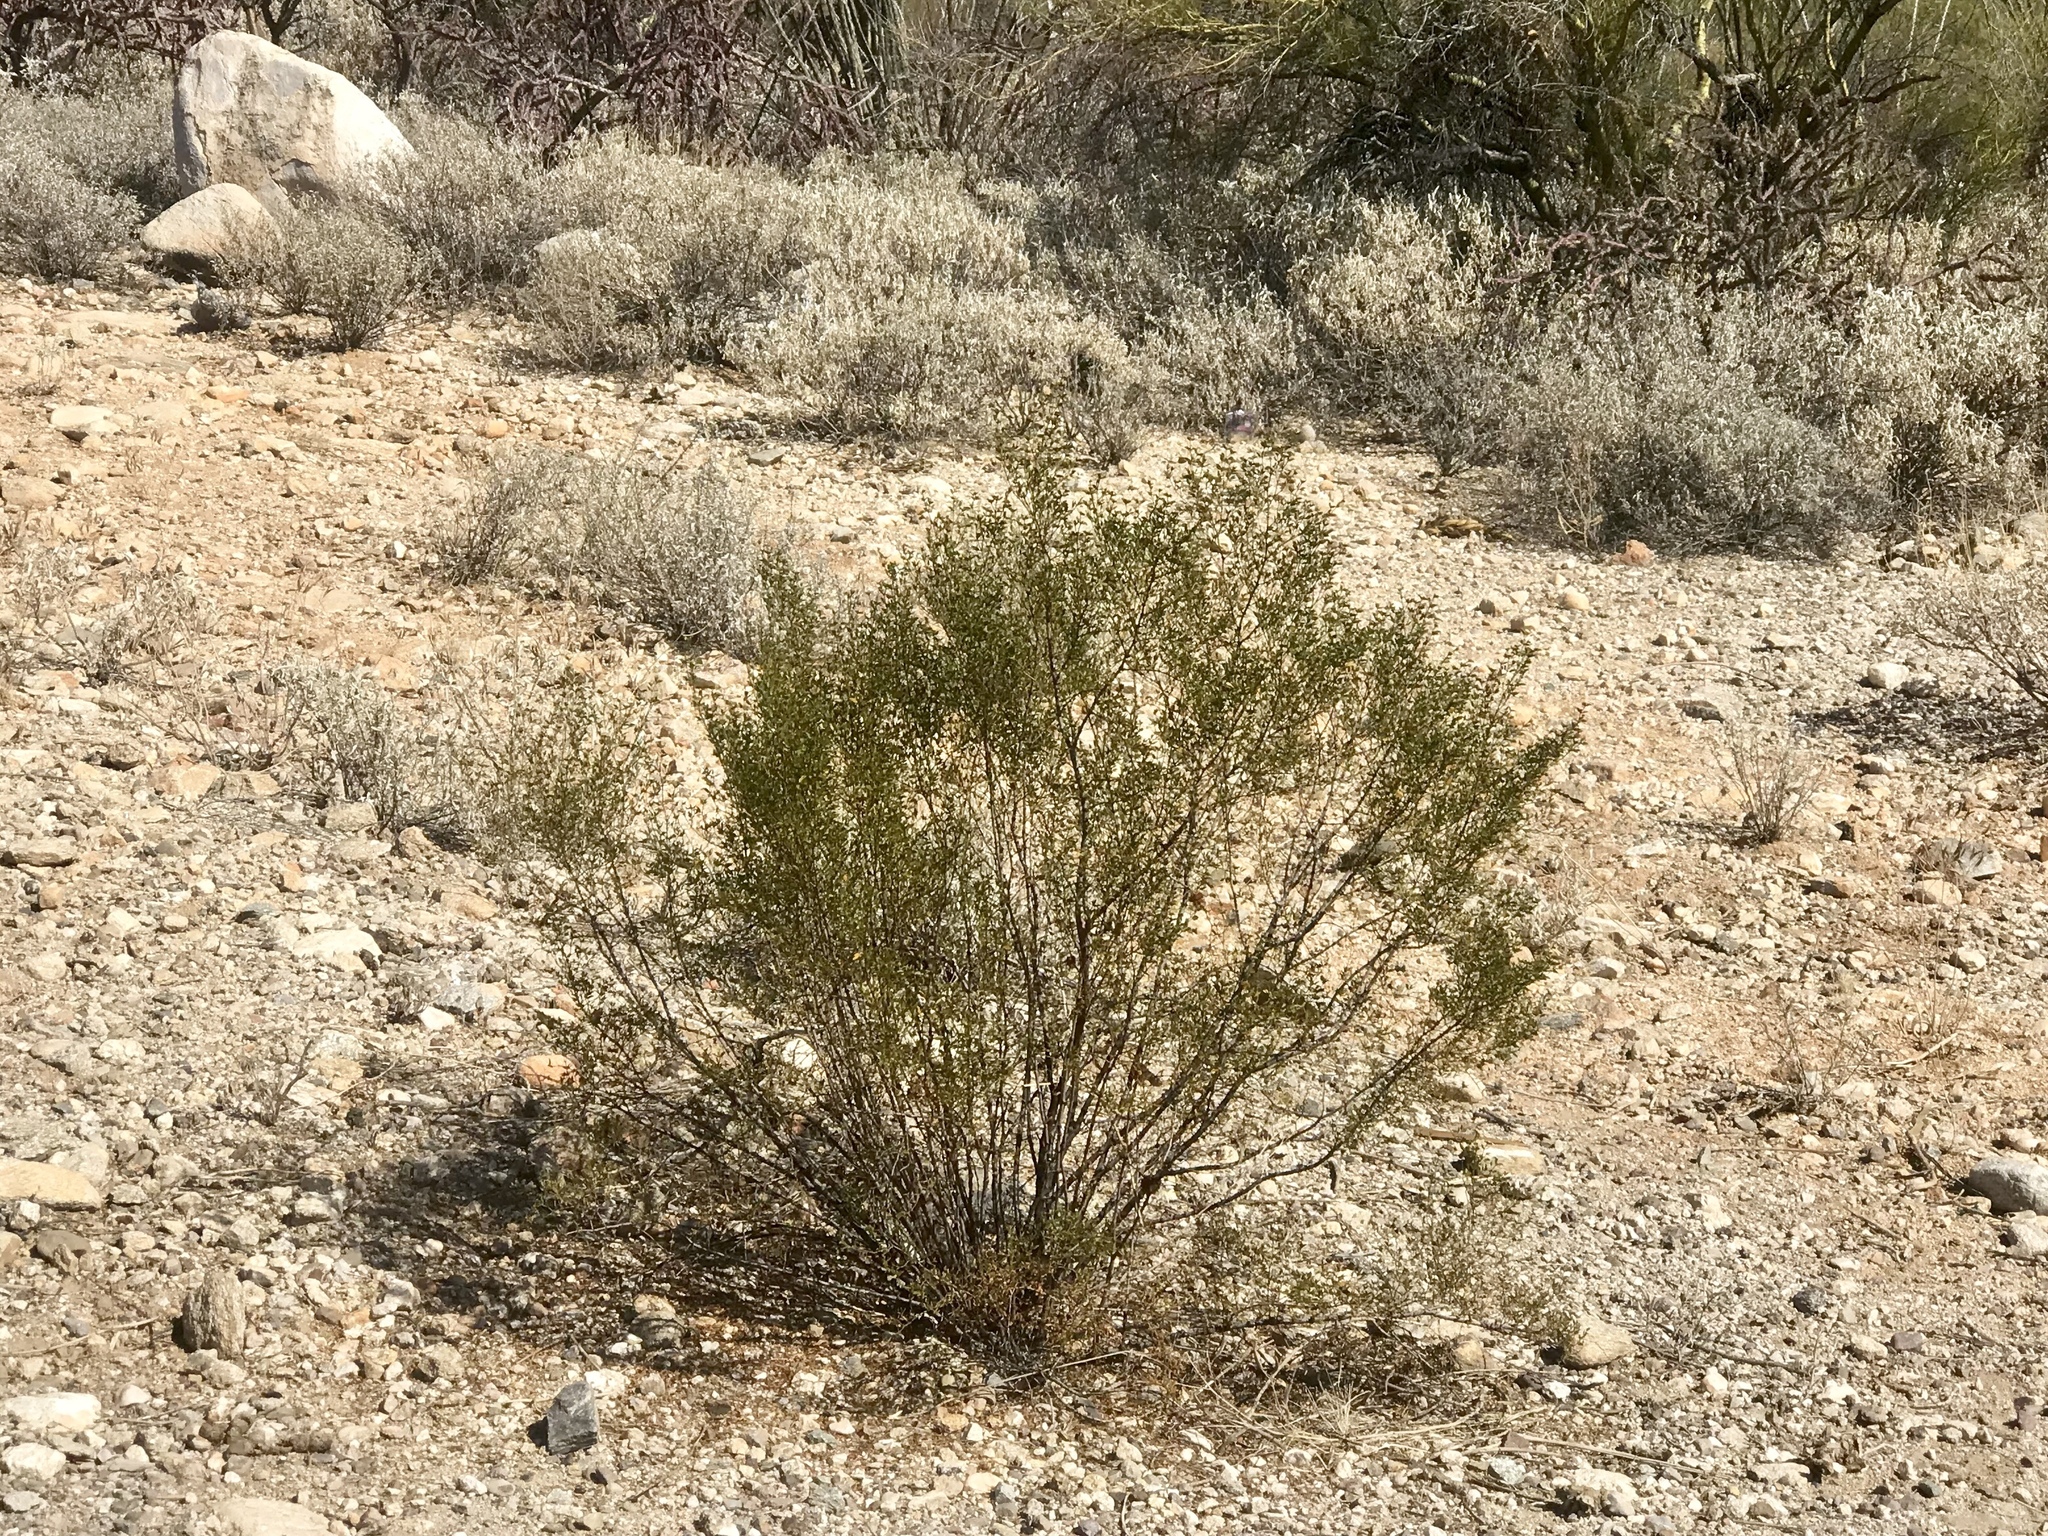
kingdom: Plantae
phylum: Tracheophyta
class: Magnoliopsida
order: Zygophyllales
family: Zygophyllaceae
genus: Larrea
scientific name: Larrea tridentata
